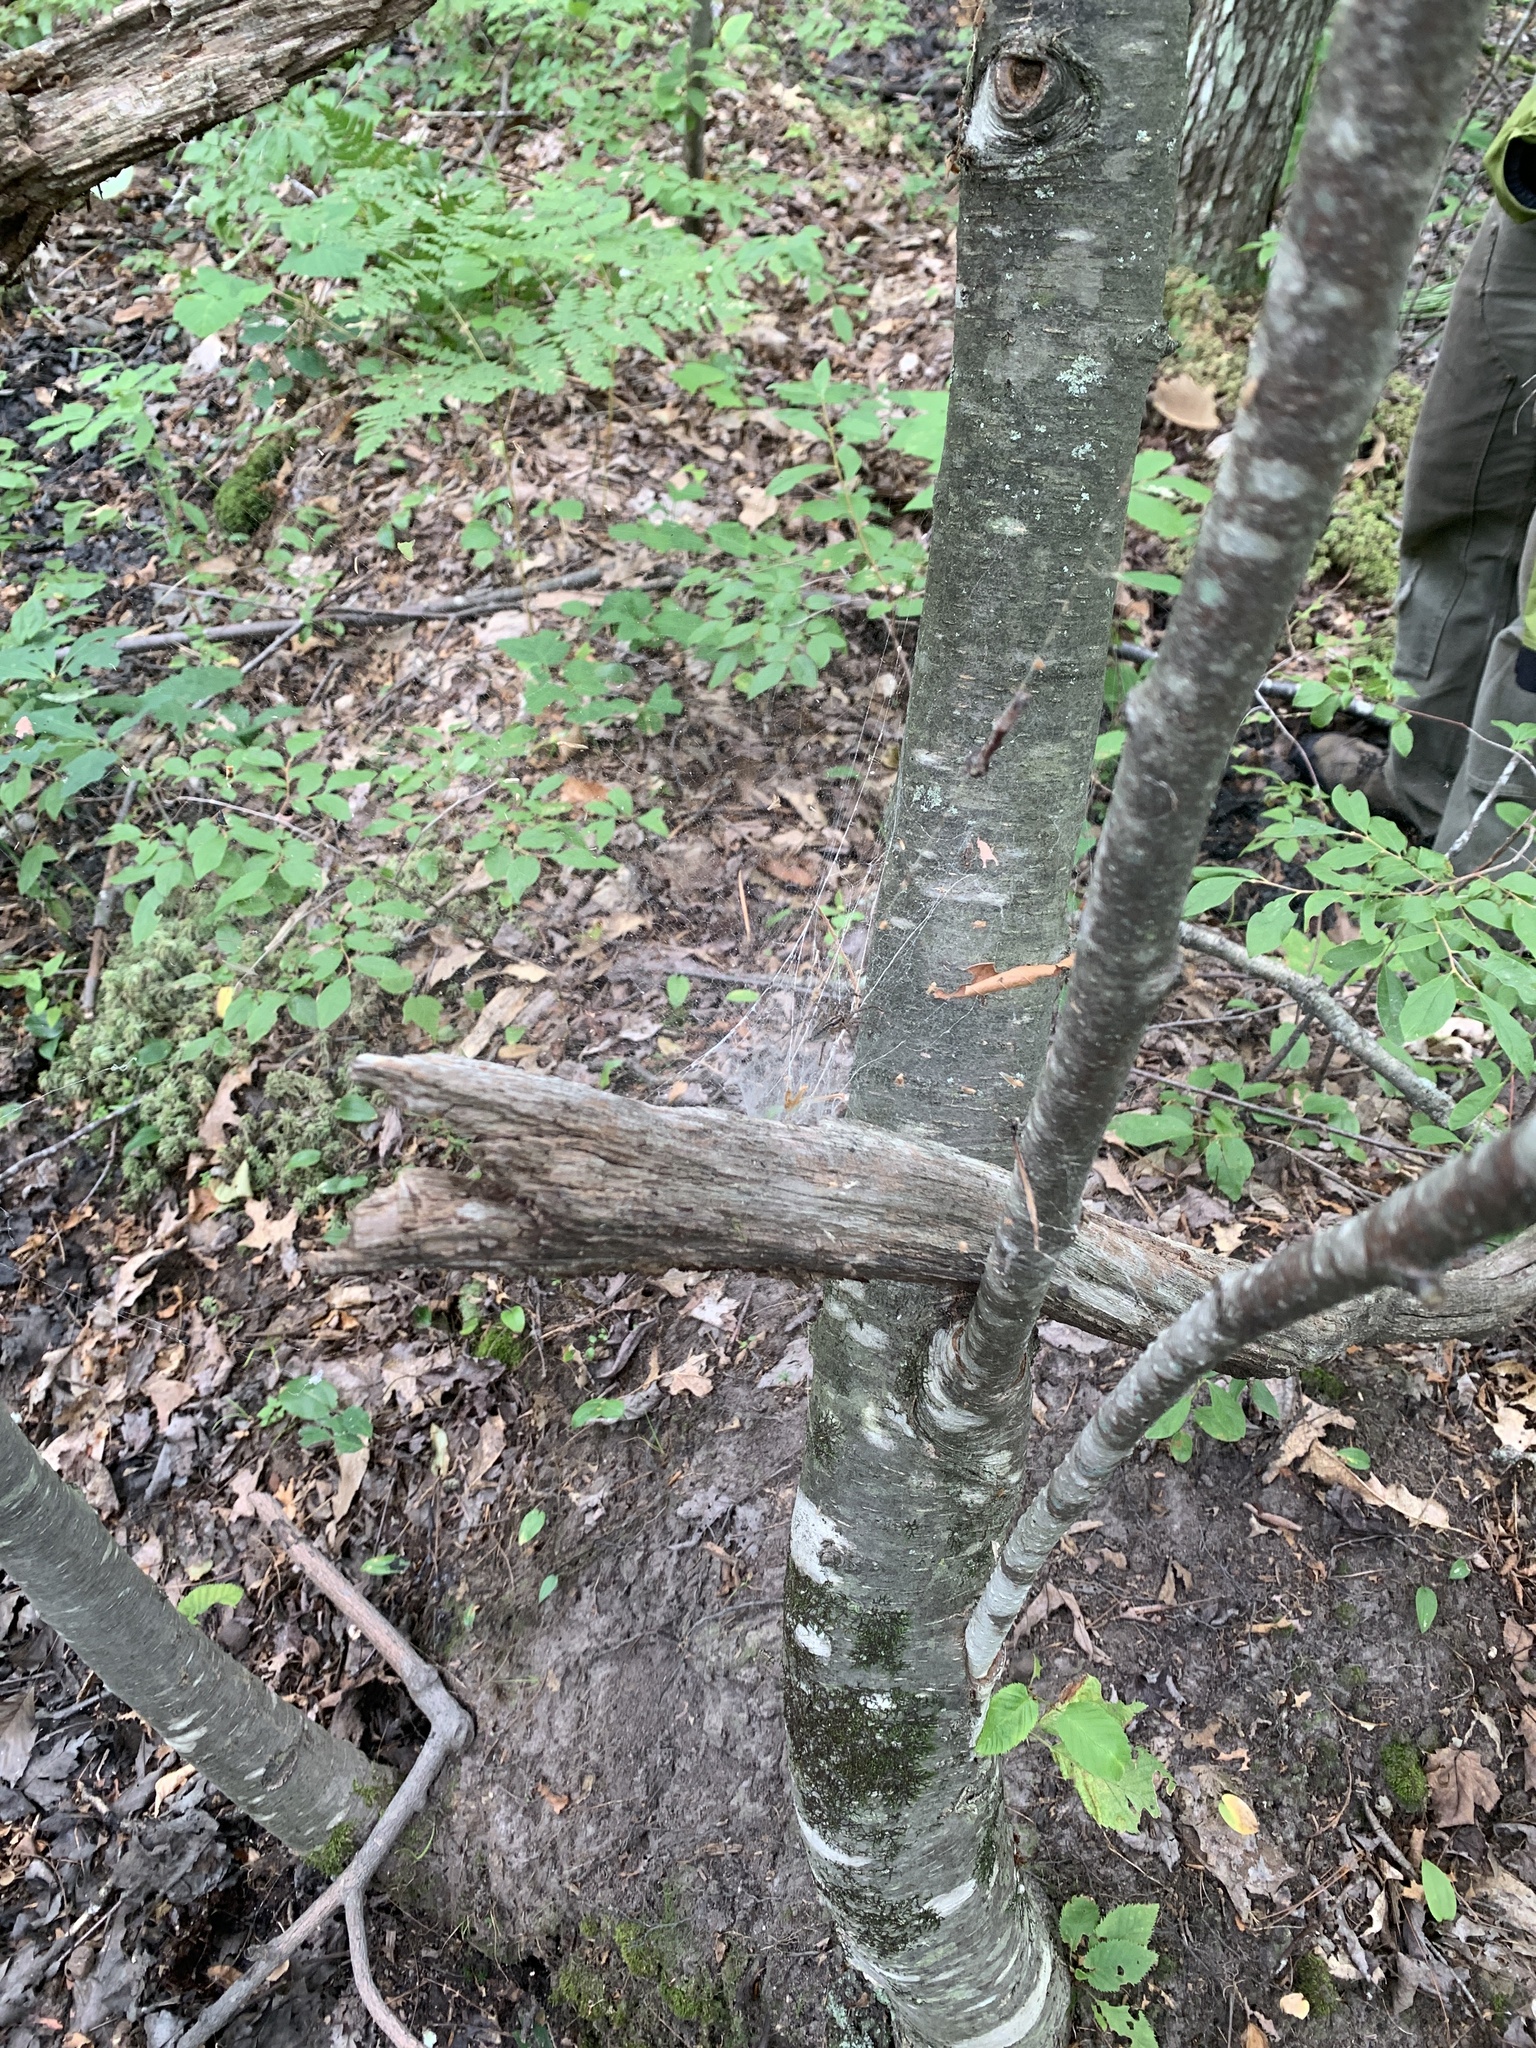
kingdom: Animalia
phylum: Arthropoda
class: Arachnida
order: Araneae
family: Agelenidae
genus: Agelenopsis
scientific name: Agelenopsis
